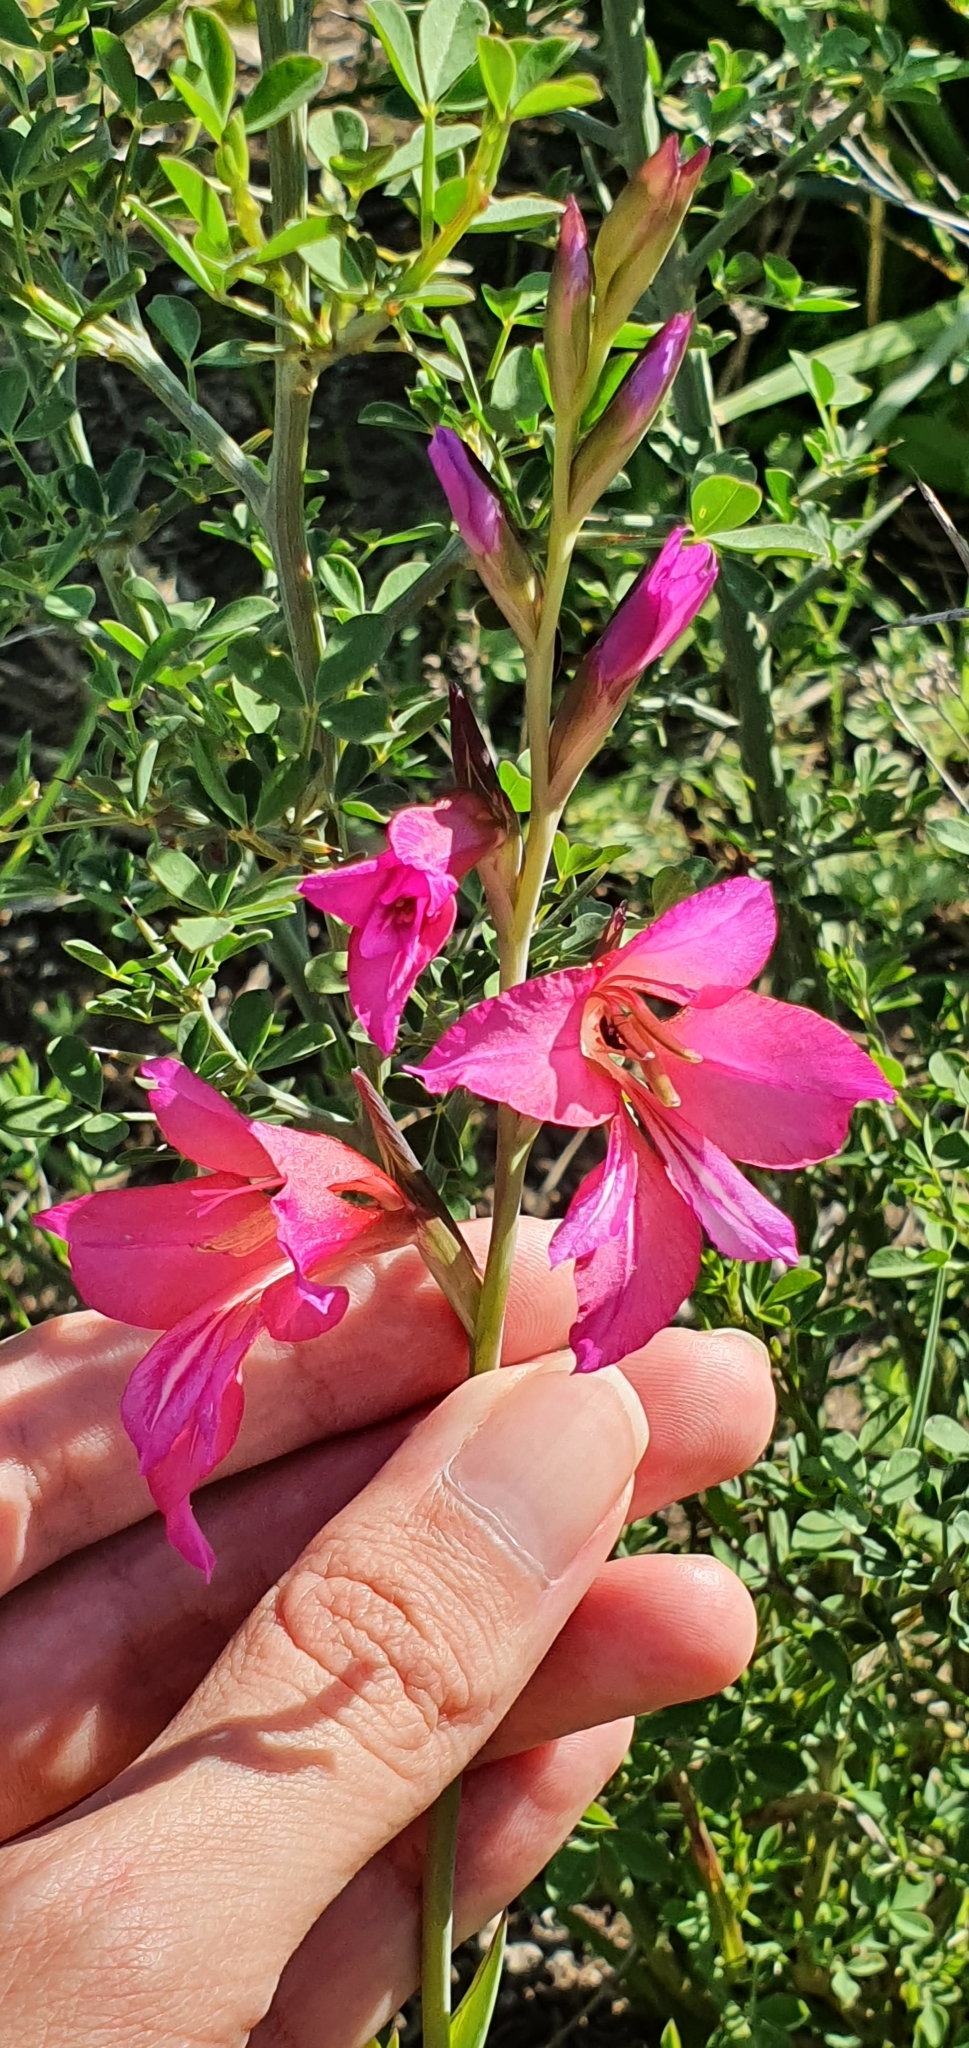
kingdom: Plantae
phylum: Tracheophyta
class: Liliopsida
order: Asparagales
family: Iridaceae
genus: Gladiolus
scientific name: Gladiolus dubius
